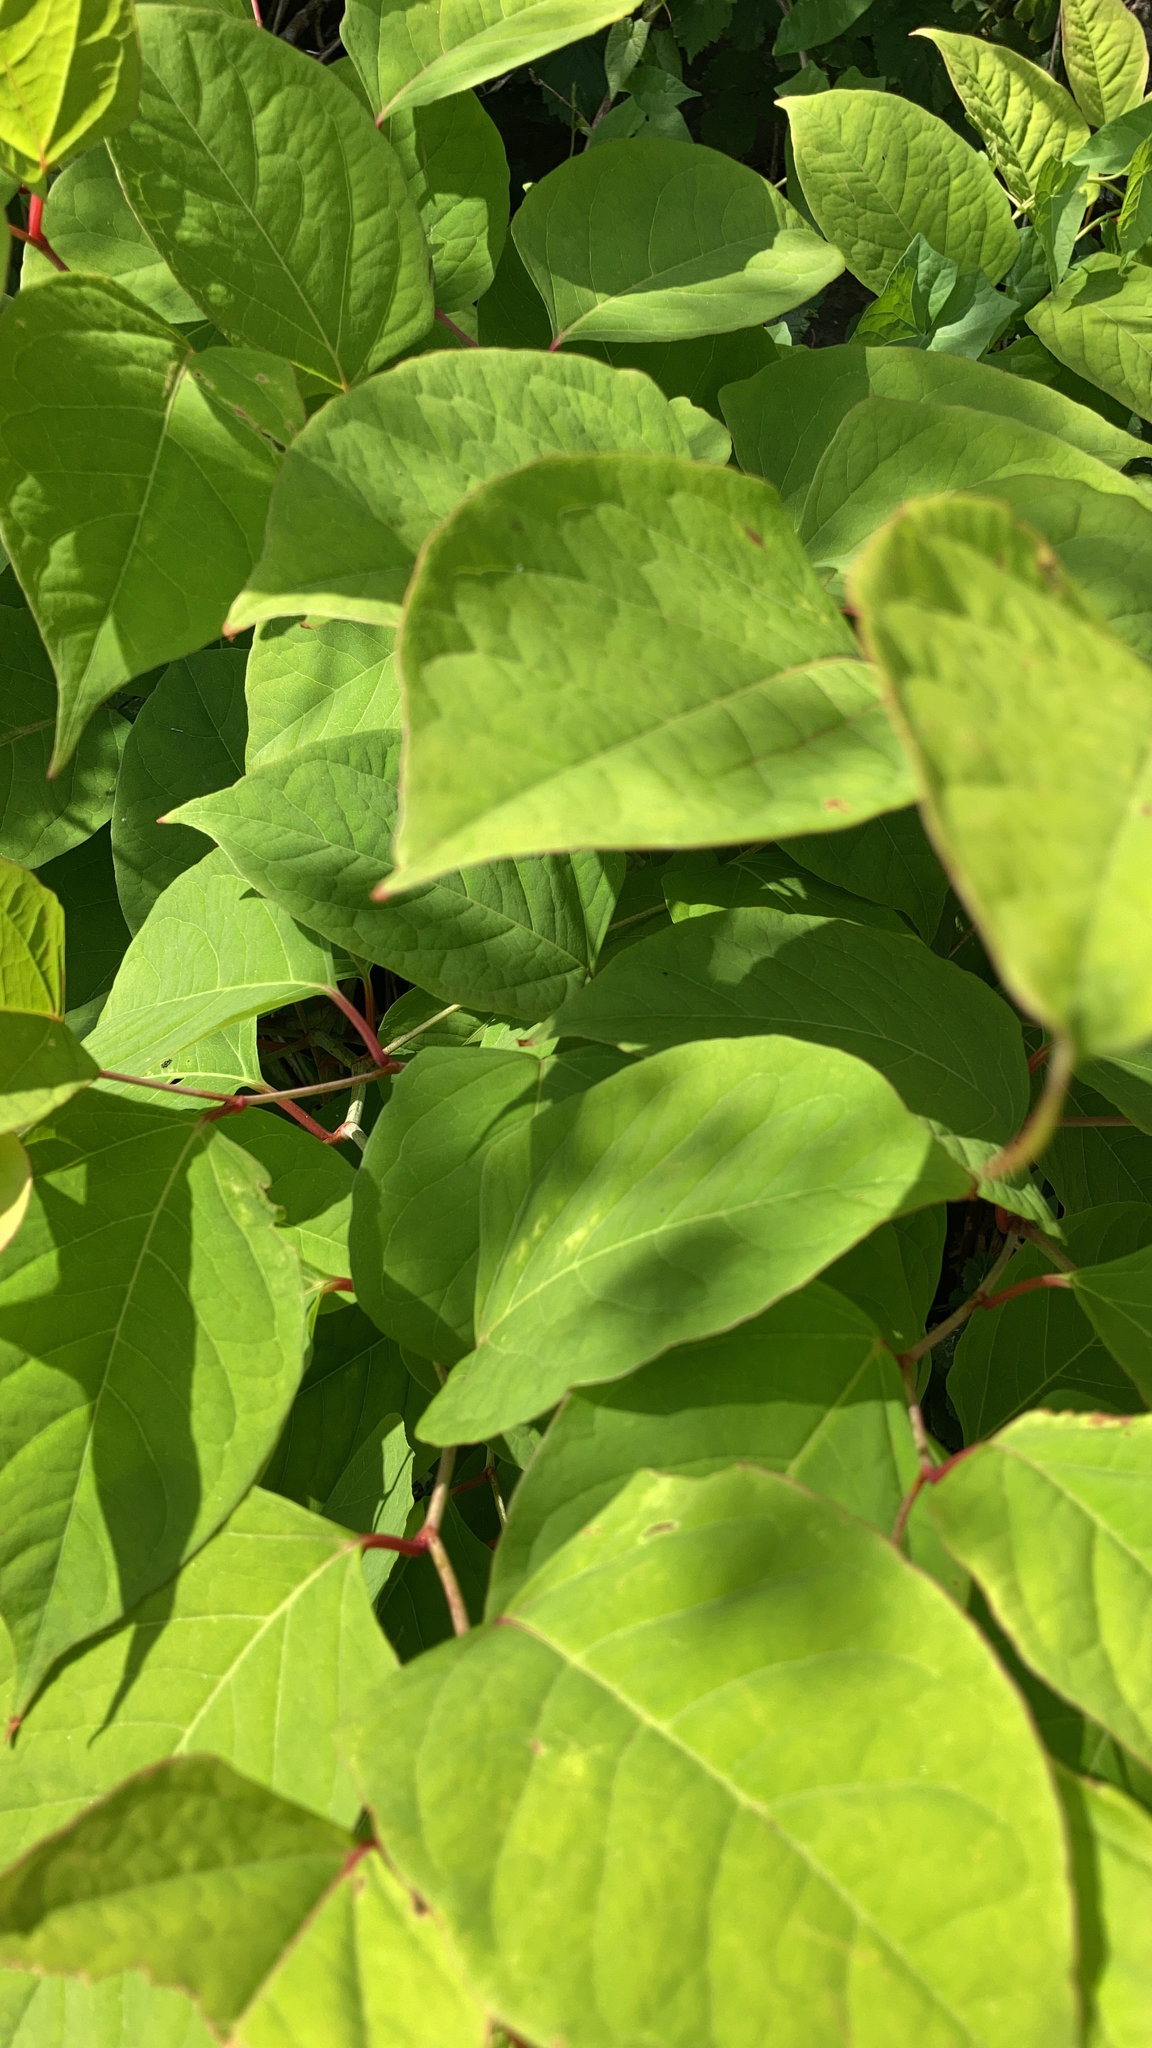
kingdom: Plantae
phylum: Tracheophyta
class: Magnoliopsida
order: Caryophyllales
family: Polygonaceae
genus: Reynoutria
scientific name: Reynoutria japonica
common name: Japanese knotweed
